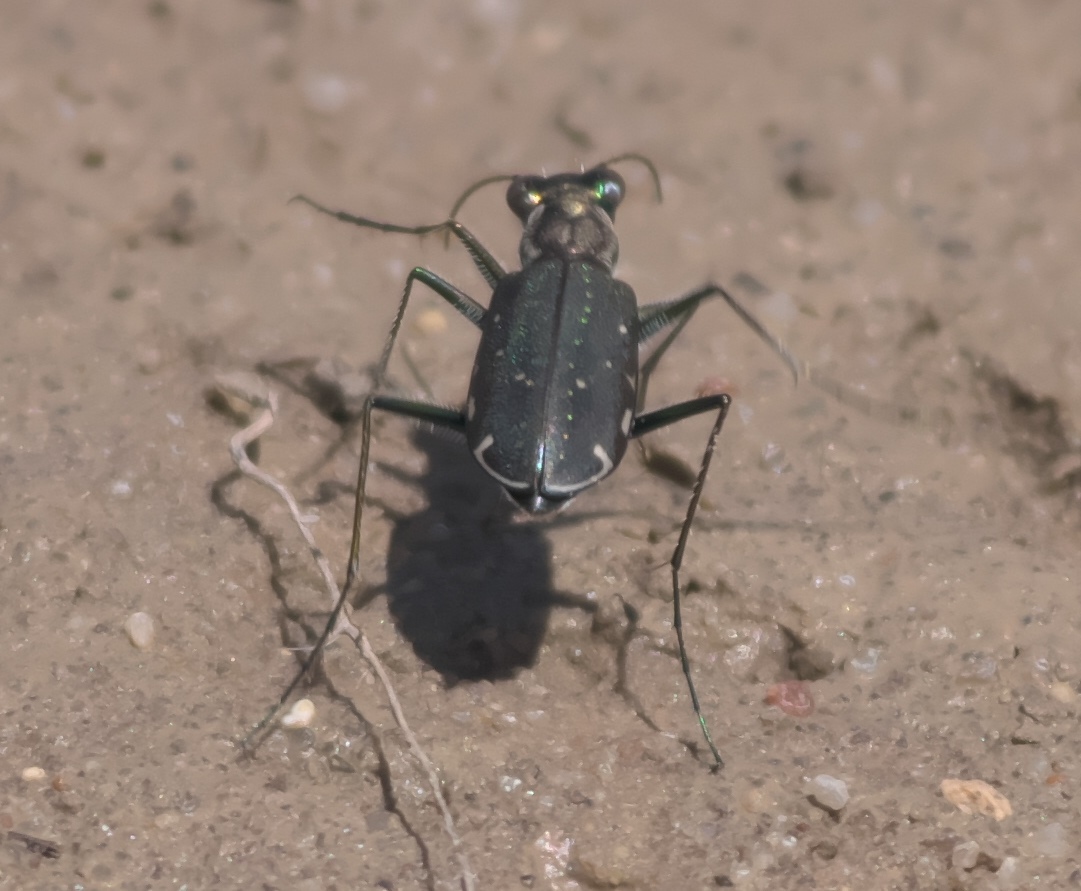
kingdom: Animalia
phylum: Arthropoda
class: Insecta
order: Coleoptera
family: Carabidae
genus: Cicindela
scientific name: Cicindela punctulata
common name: Punctured tiger beetle
